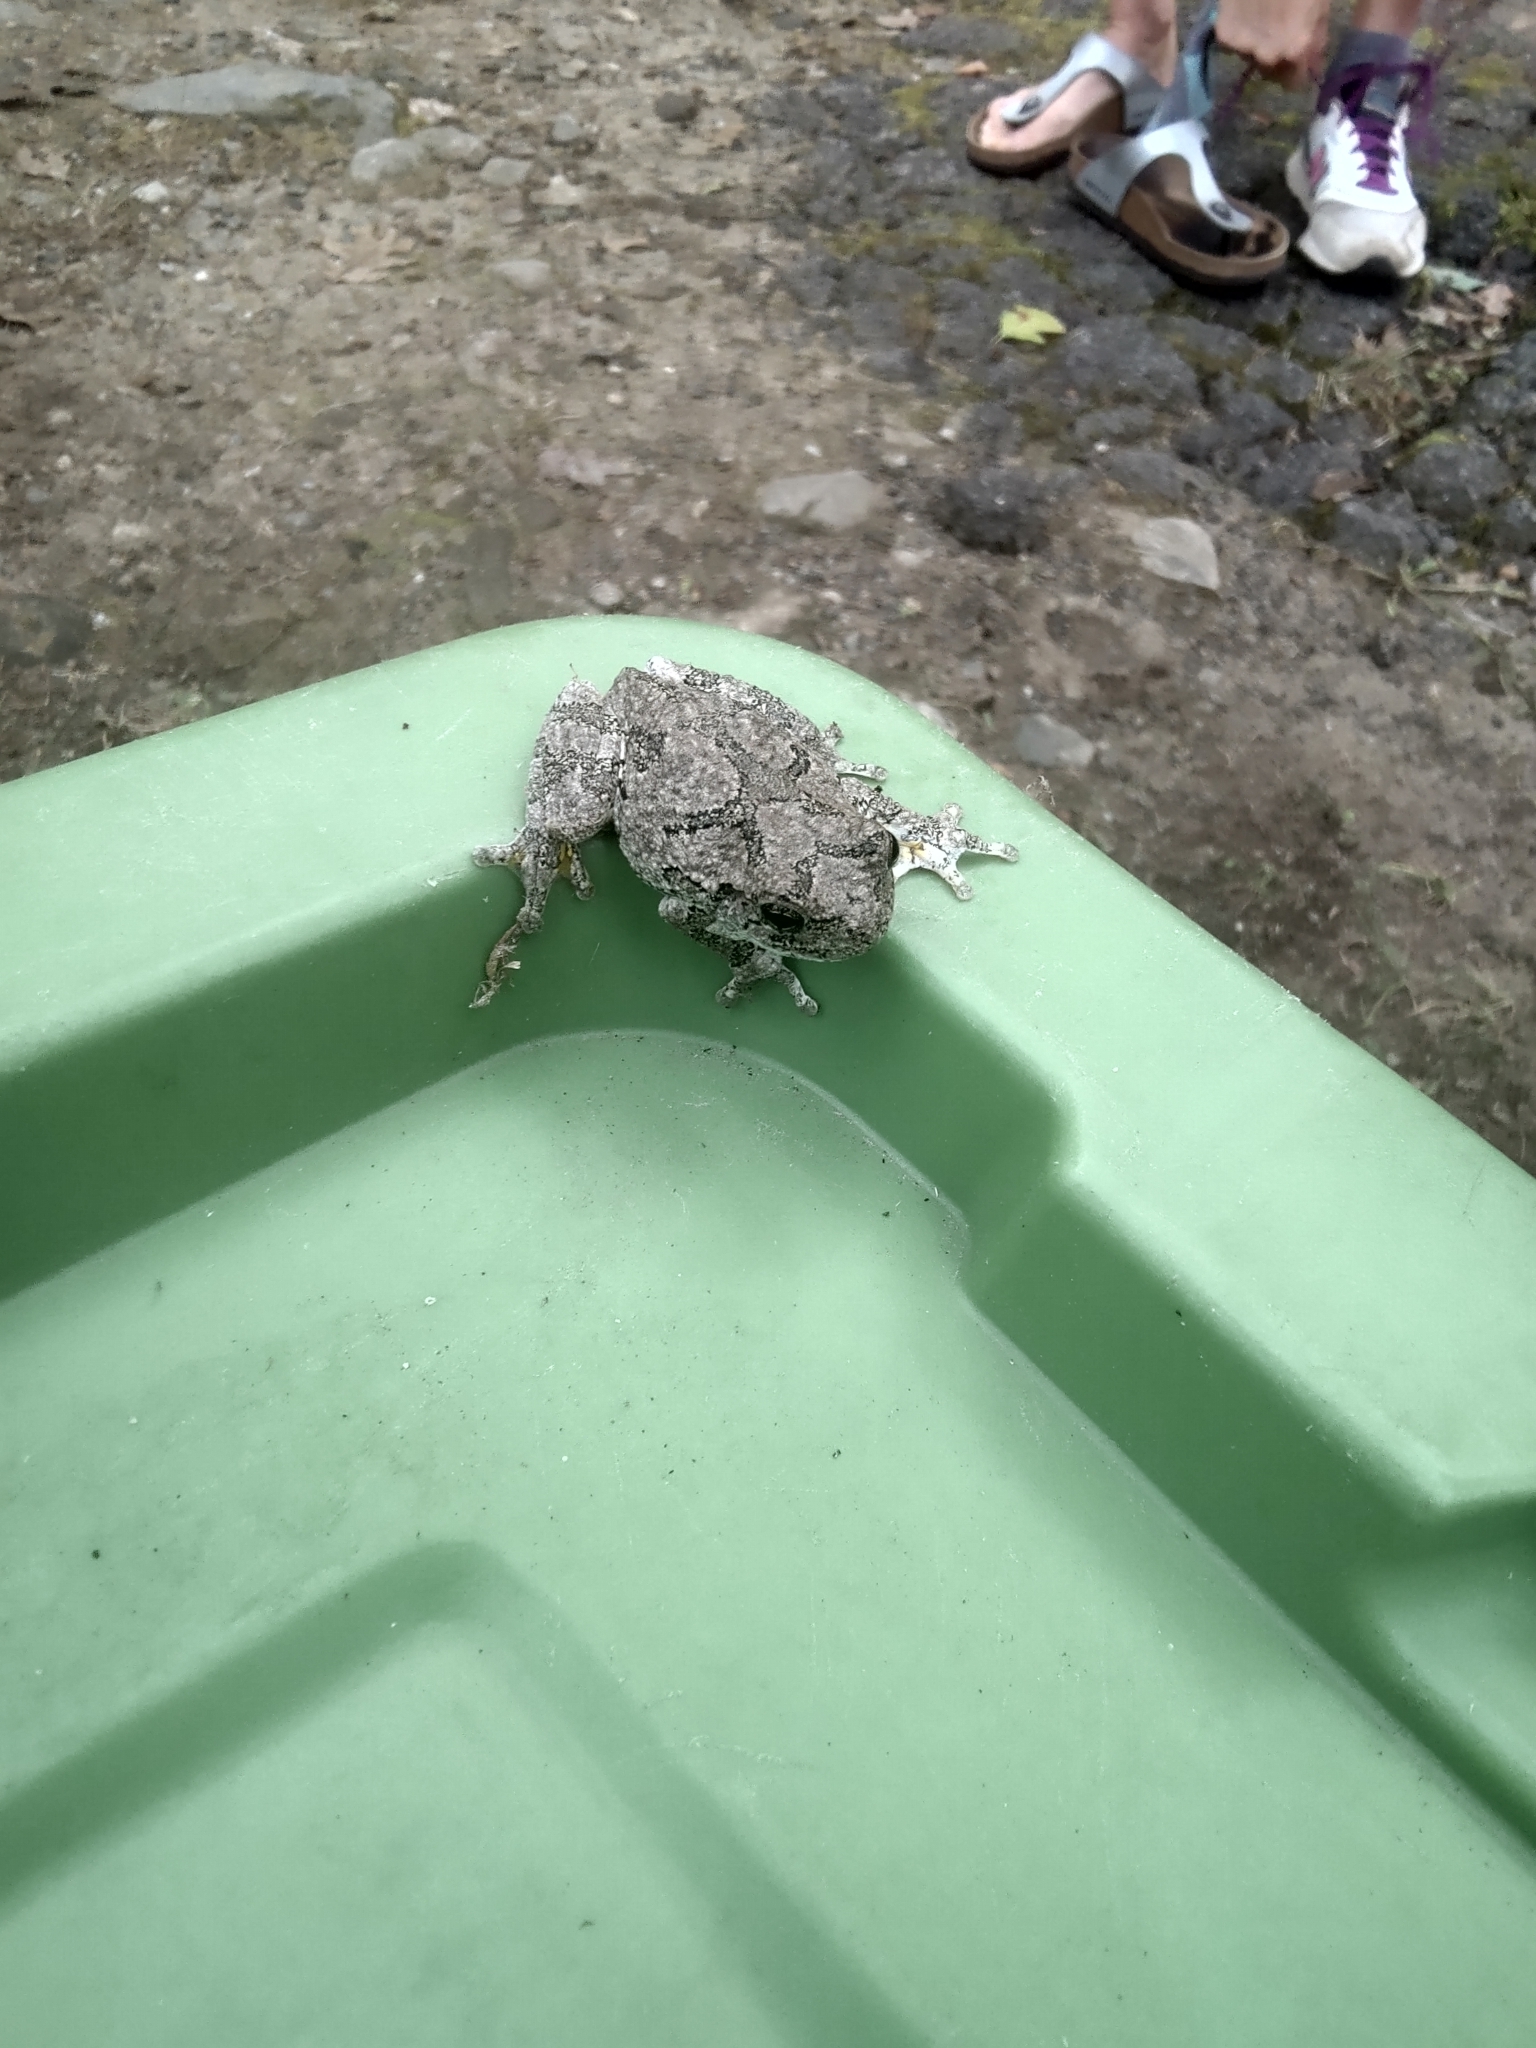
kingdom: Animalia
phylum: Chordata
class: Amphibia
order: Anura
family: Hylidae
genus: Dryophytes
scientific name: Dryophytes versicolor
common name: Gray treefrog
